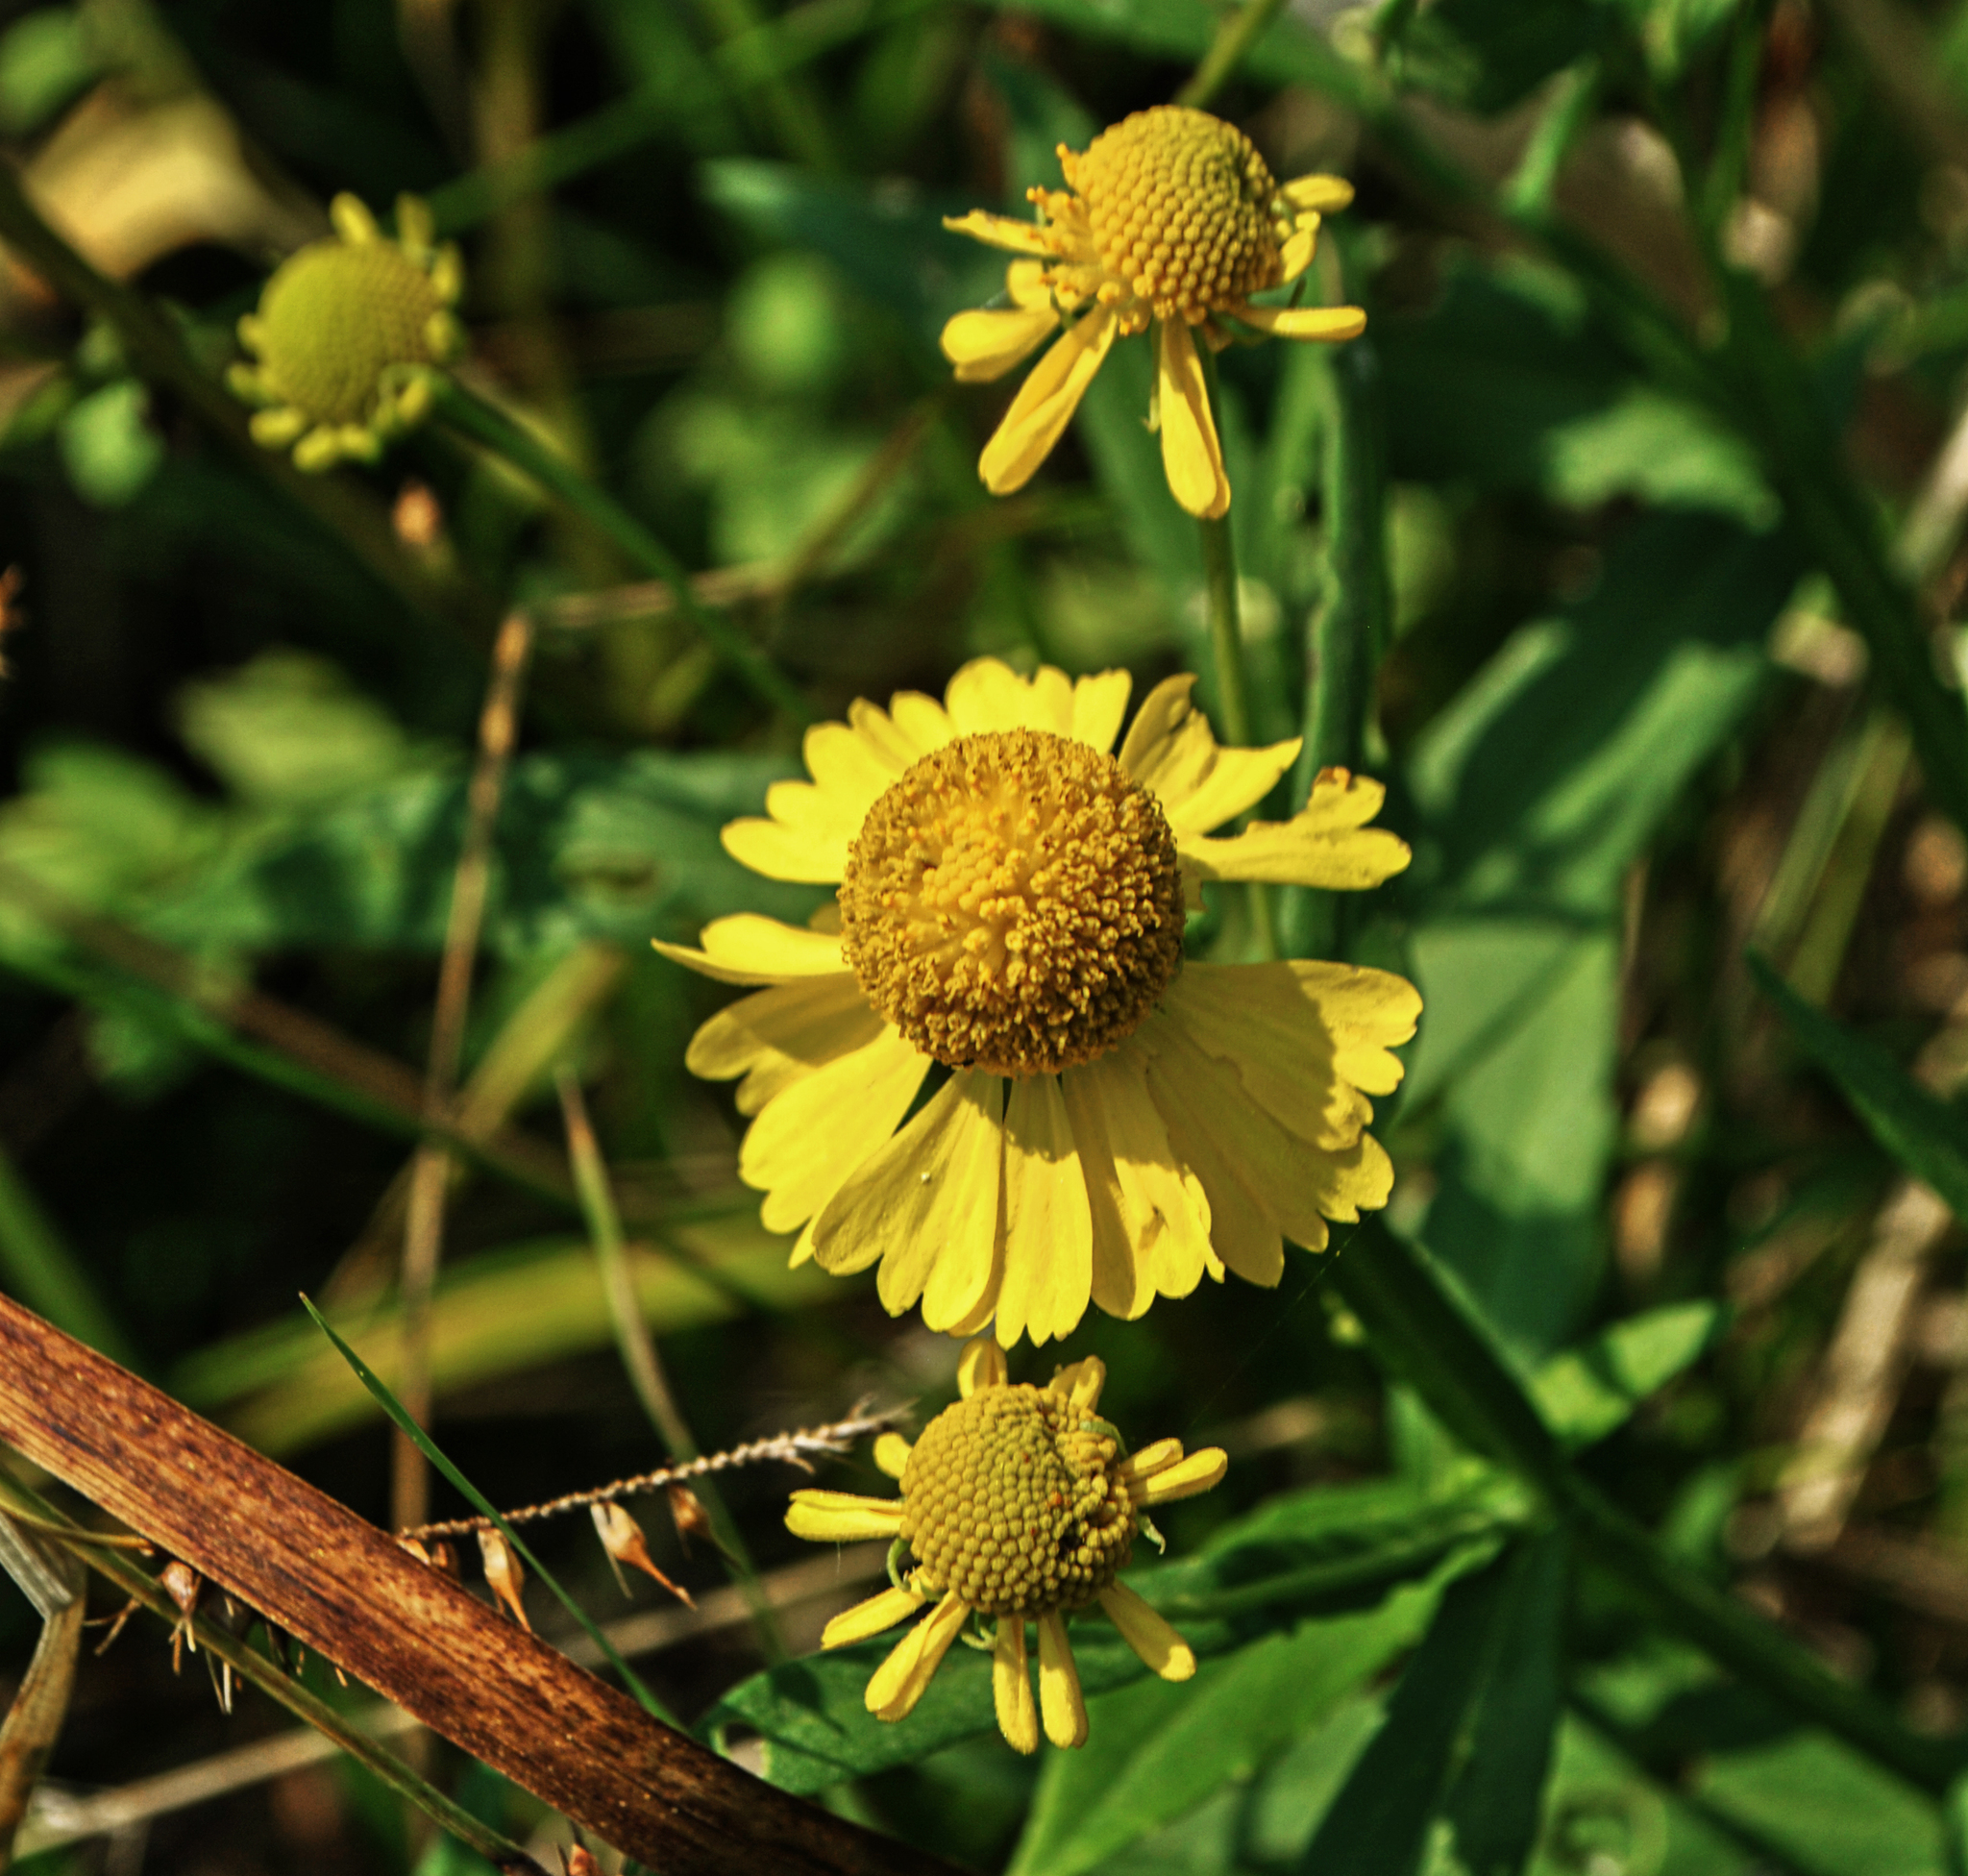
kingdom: Plantae
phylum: Tracheophyta
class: Magnoliopsida
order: Asterales
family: Asteraceae
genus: Helenium
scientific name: Helenium autumnale
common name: Sneezeweed
